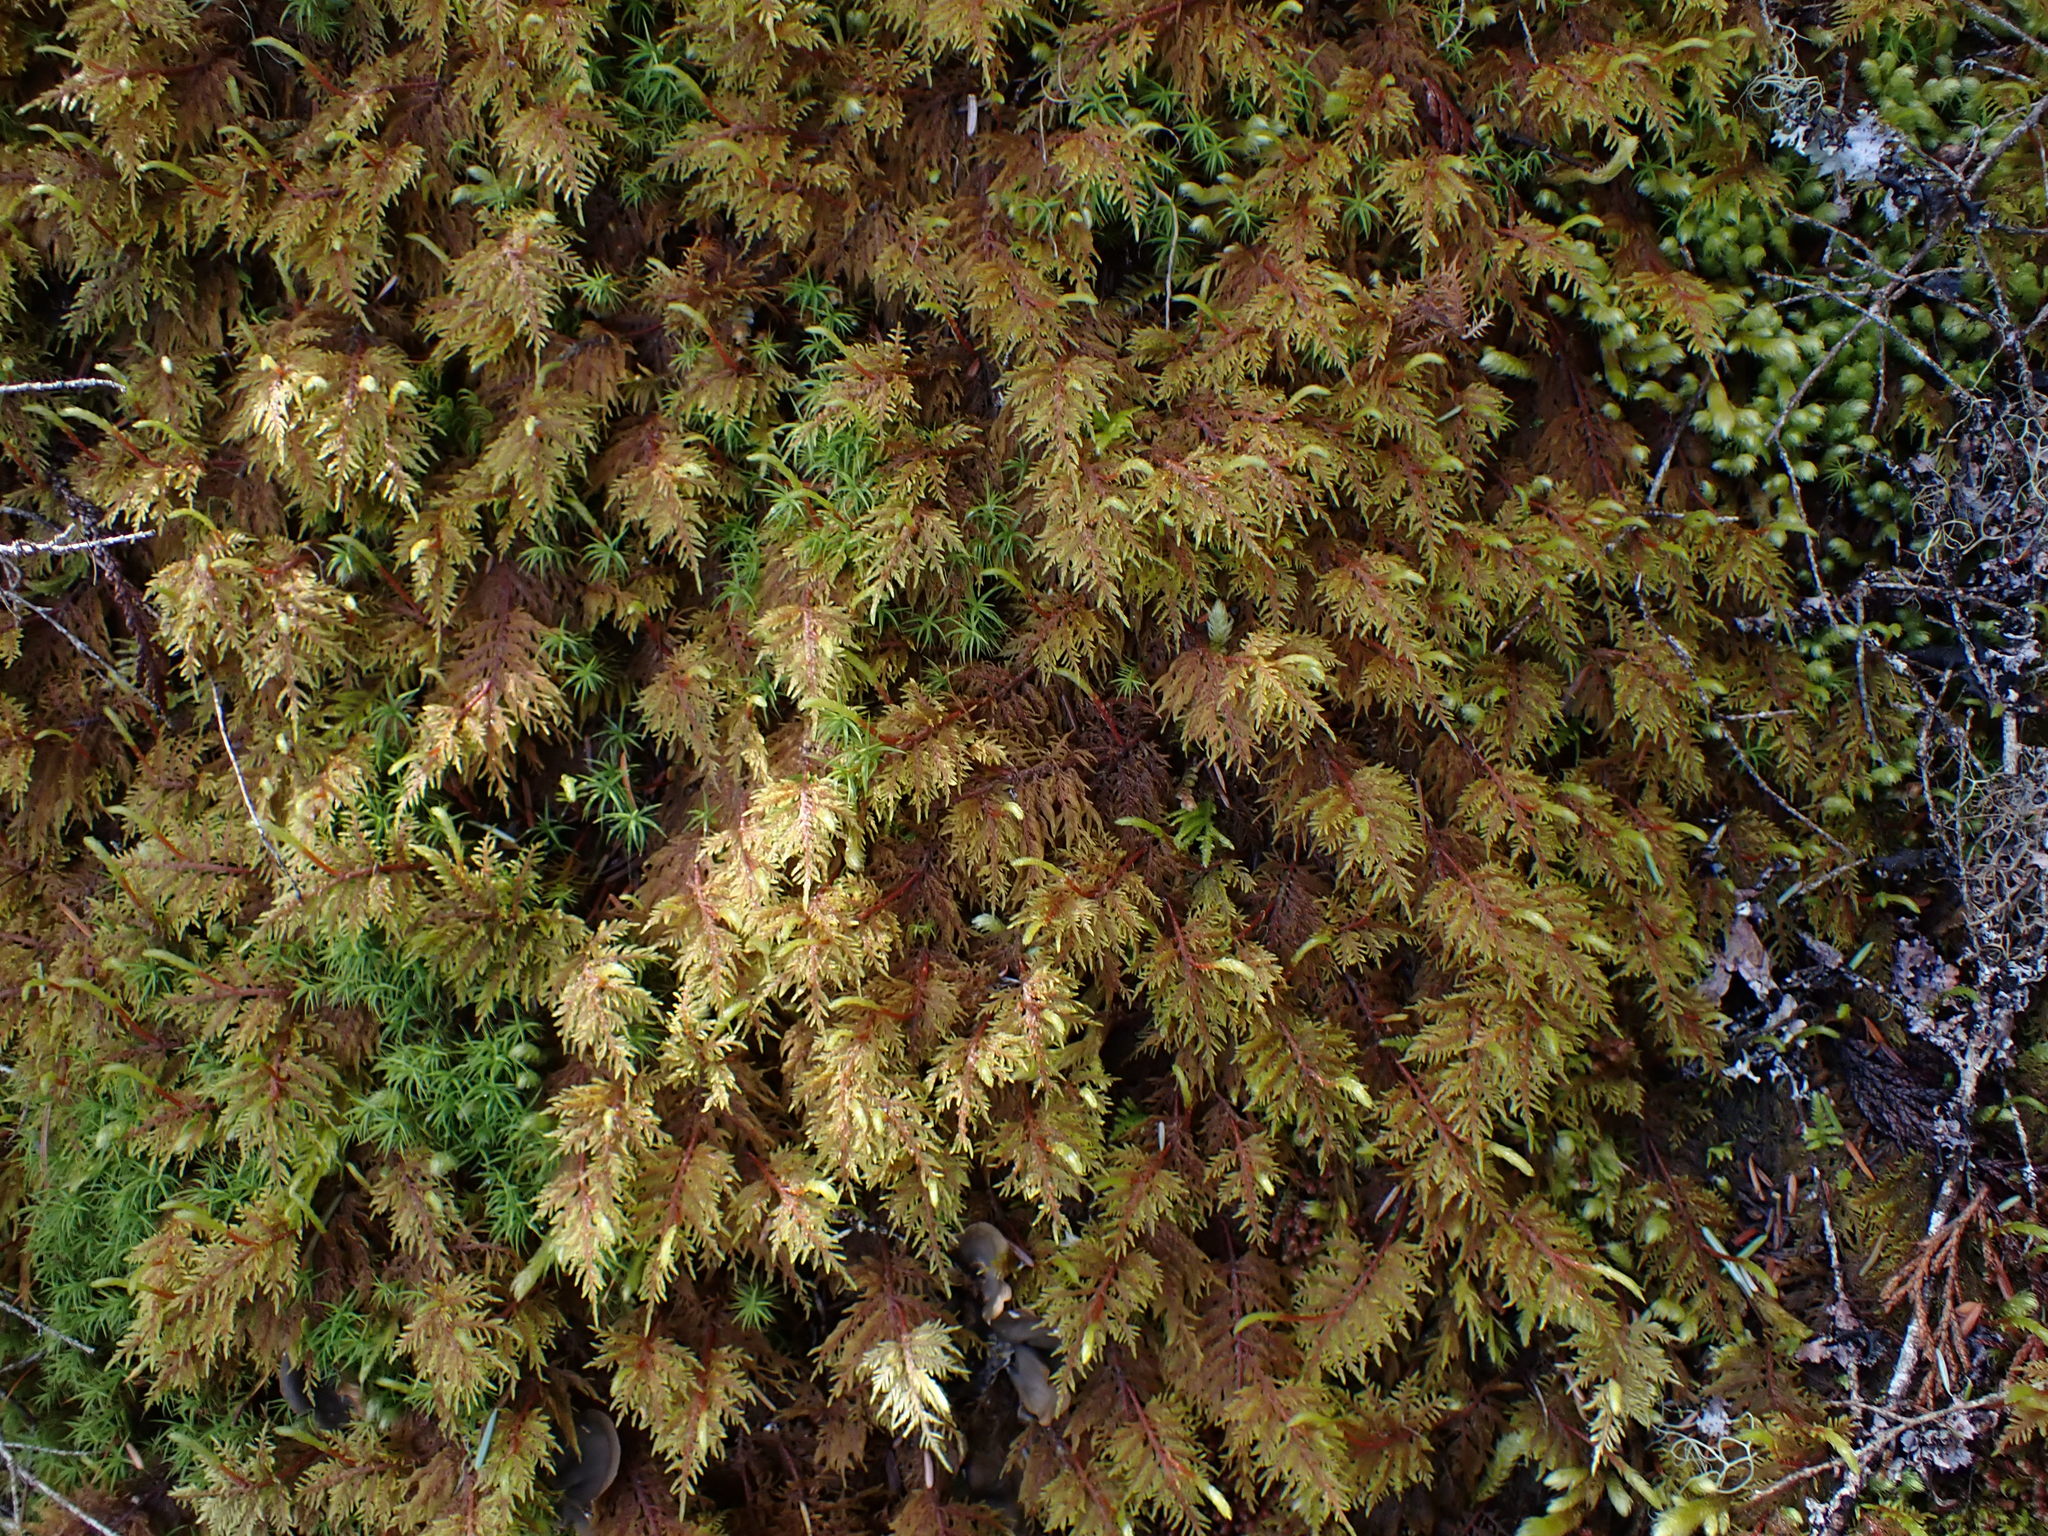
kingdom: Plantae
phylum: Bryophyta
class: Bryopsida
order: Hypnales
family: Hylocomiaceae
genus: Hylocomium
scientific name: Hylocomium splendens
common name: Stairstep moss
